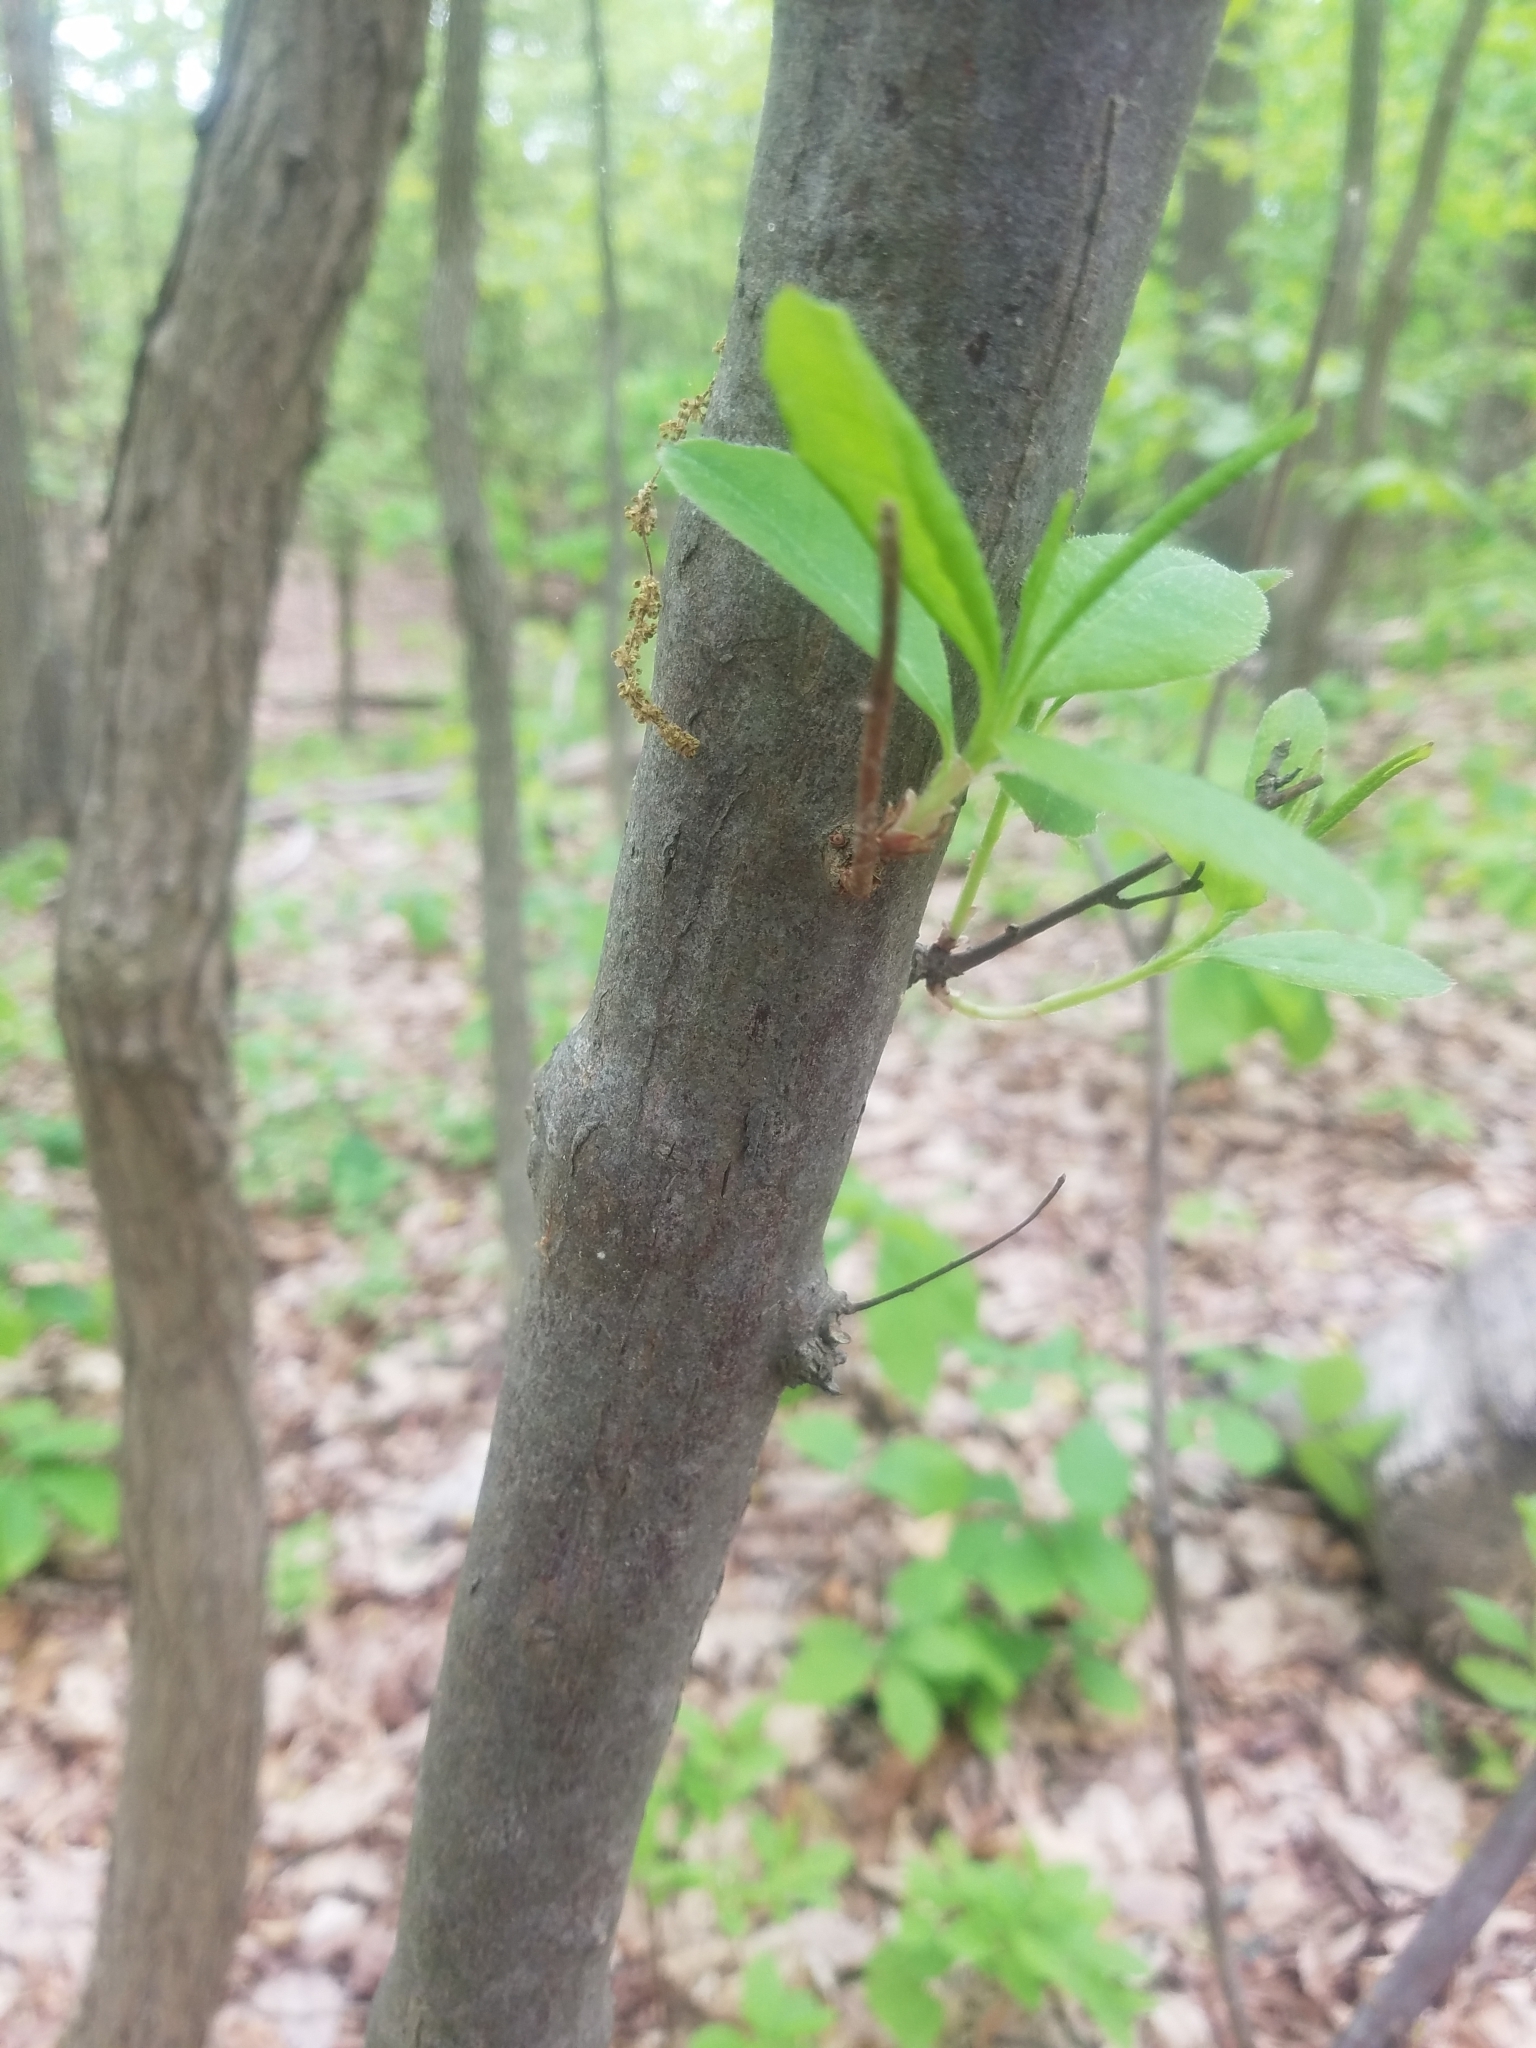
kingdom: Plantae
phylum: Tracheophyta
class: Magnoliopsida
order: Ericales
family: Ericaceae
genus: Rhododendron
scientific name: Rhododendron periclymenoides
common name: Election-pink
